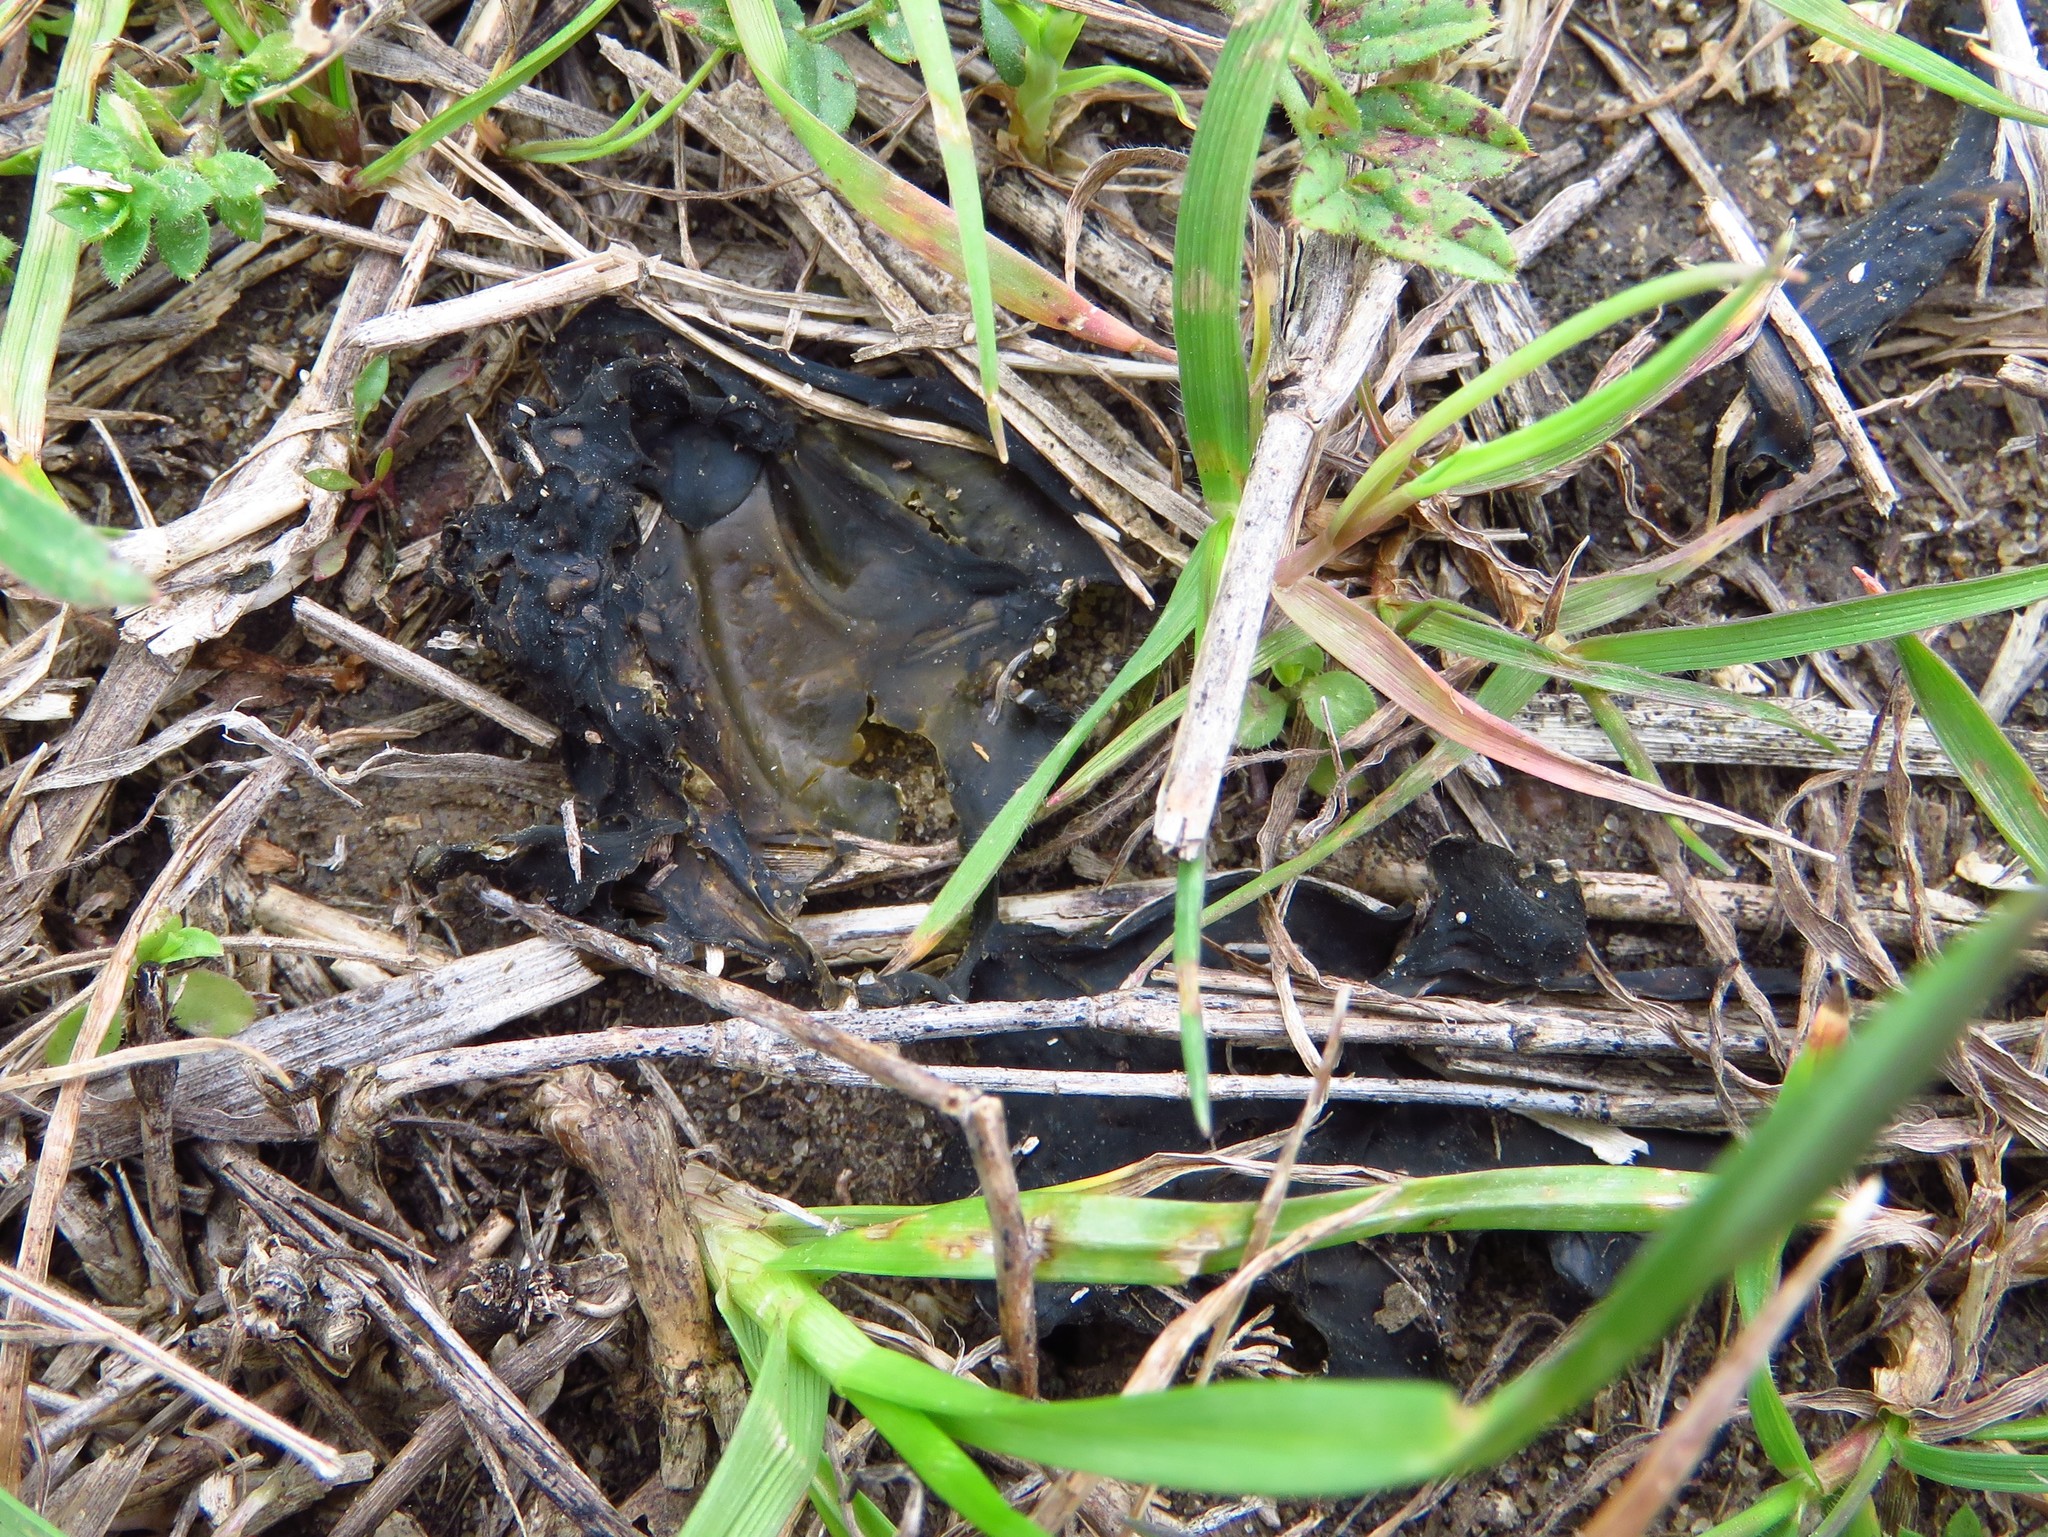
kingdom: Bacteria
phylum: Cyanobacteria
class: Cyanobacteriia
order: Cyanobacteriales
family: Nostocaceae
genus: Nostoc
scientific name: Nostoc commune
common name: Star jelly
